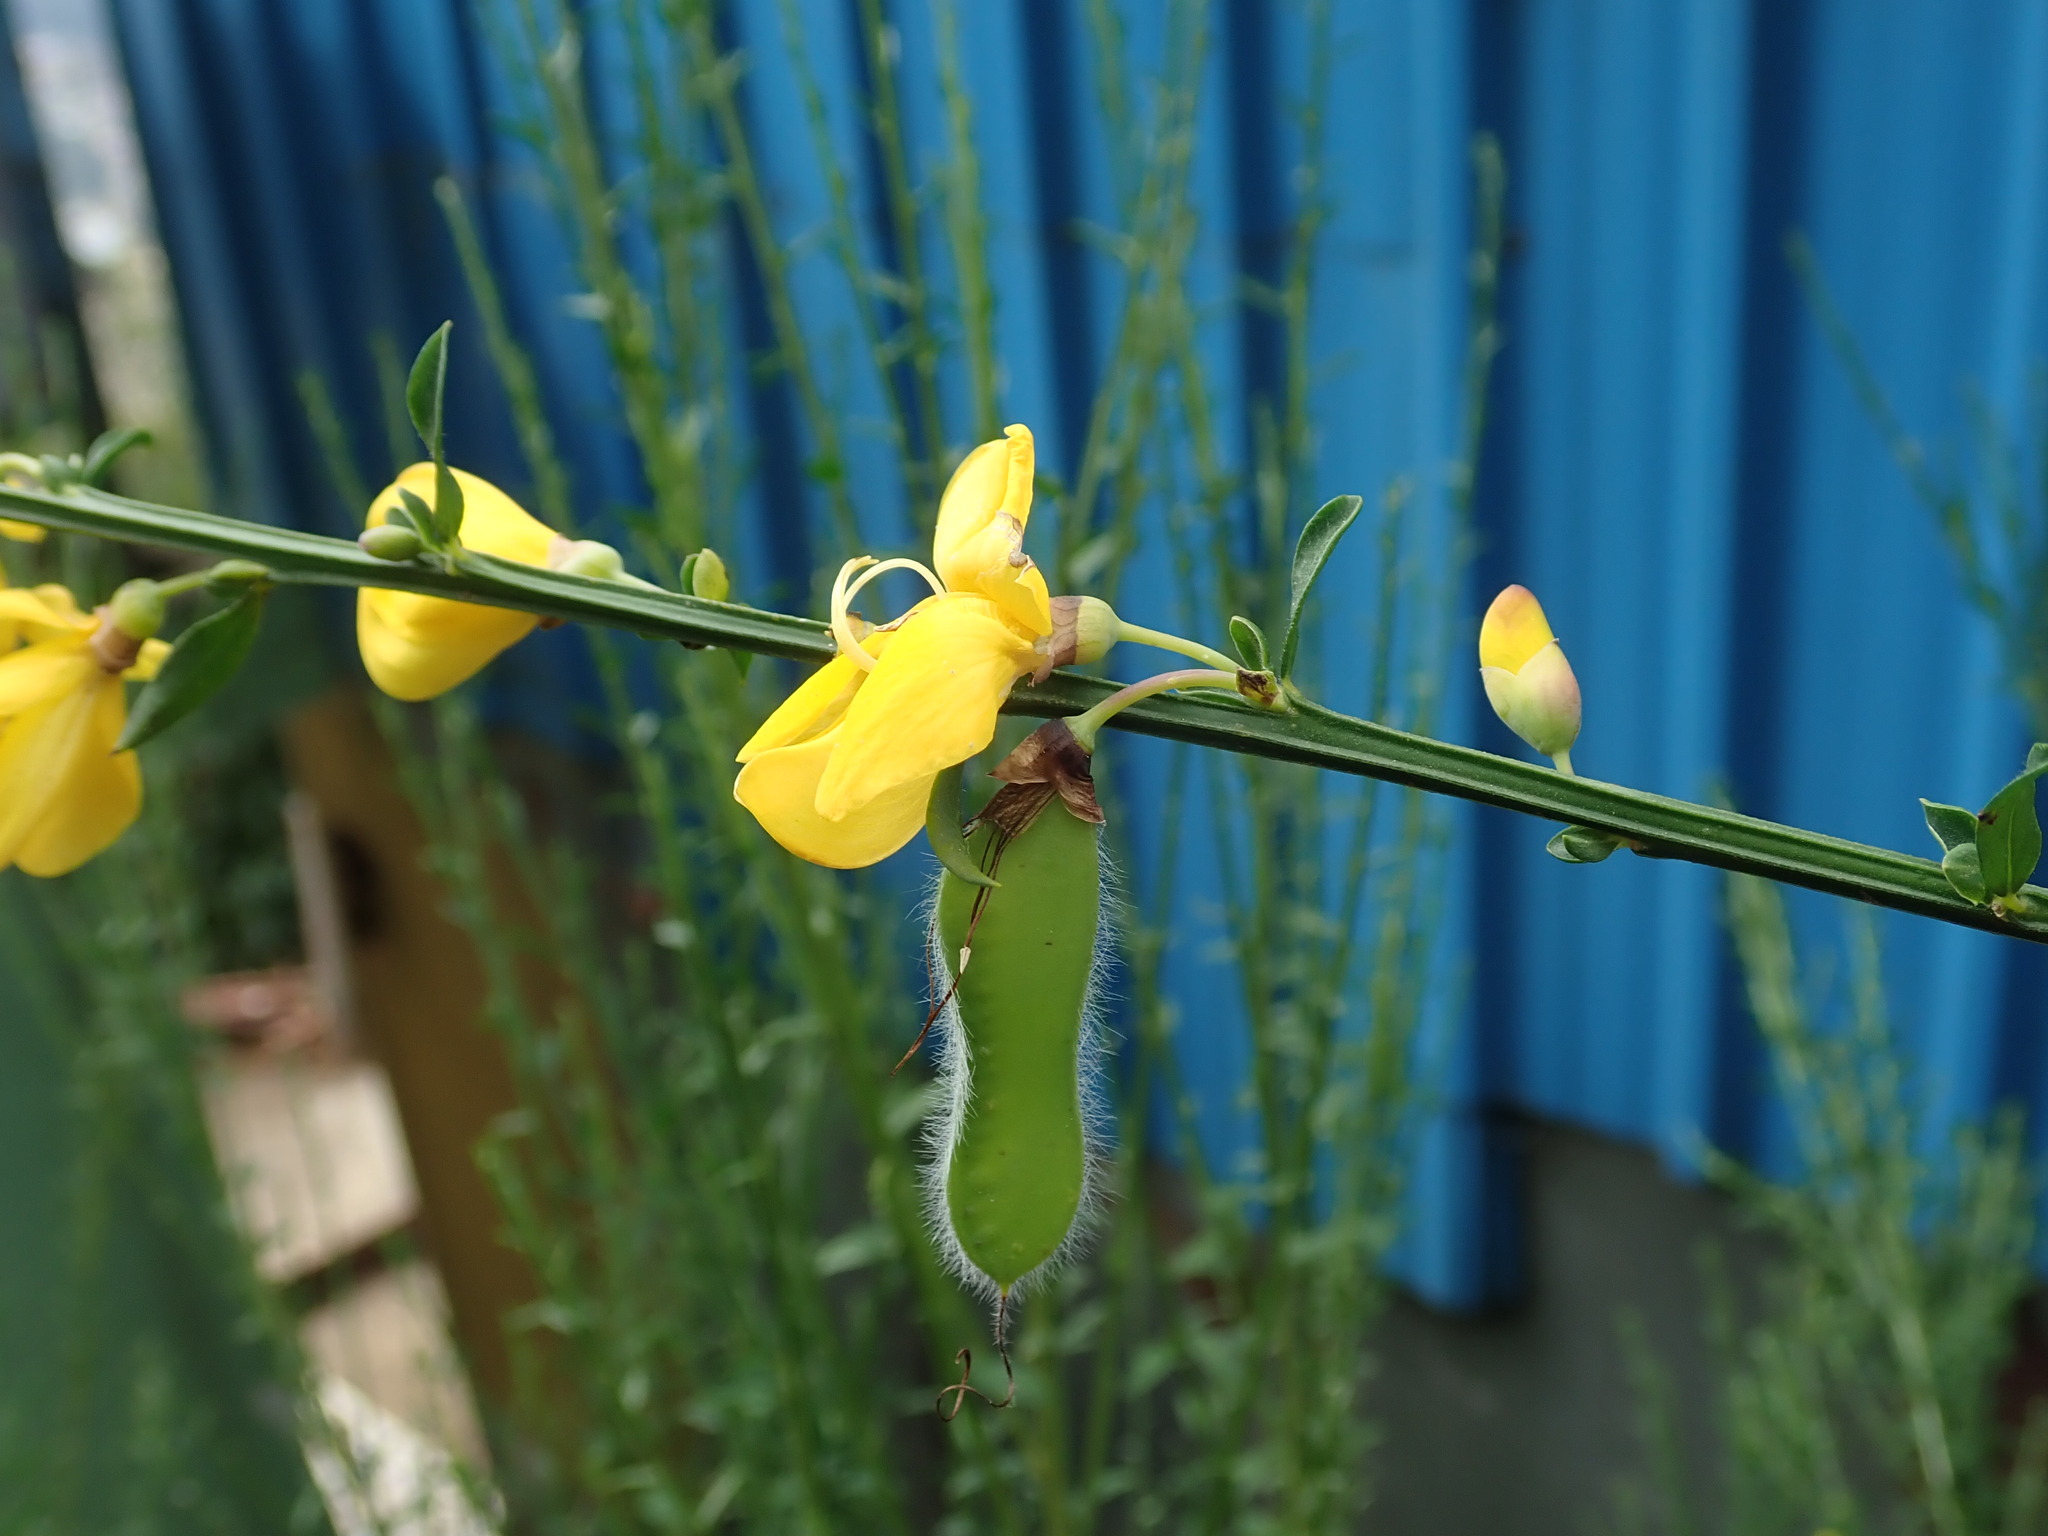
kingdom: Plantae
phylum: Tracheophyta
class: Magnoliopsida
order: Fabales
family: Fabaceae
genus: Cytisus
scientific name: Cytisus scoparius
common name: Scotch broom
